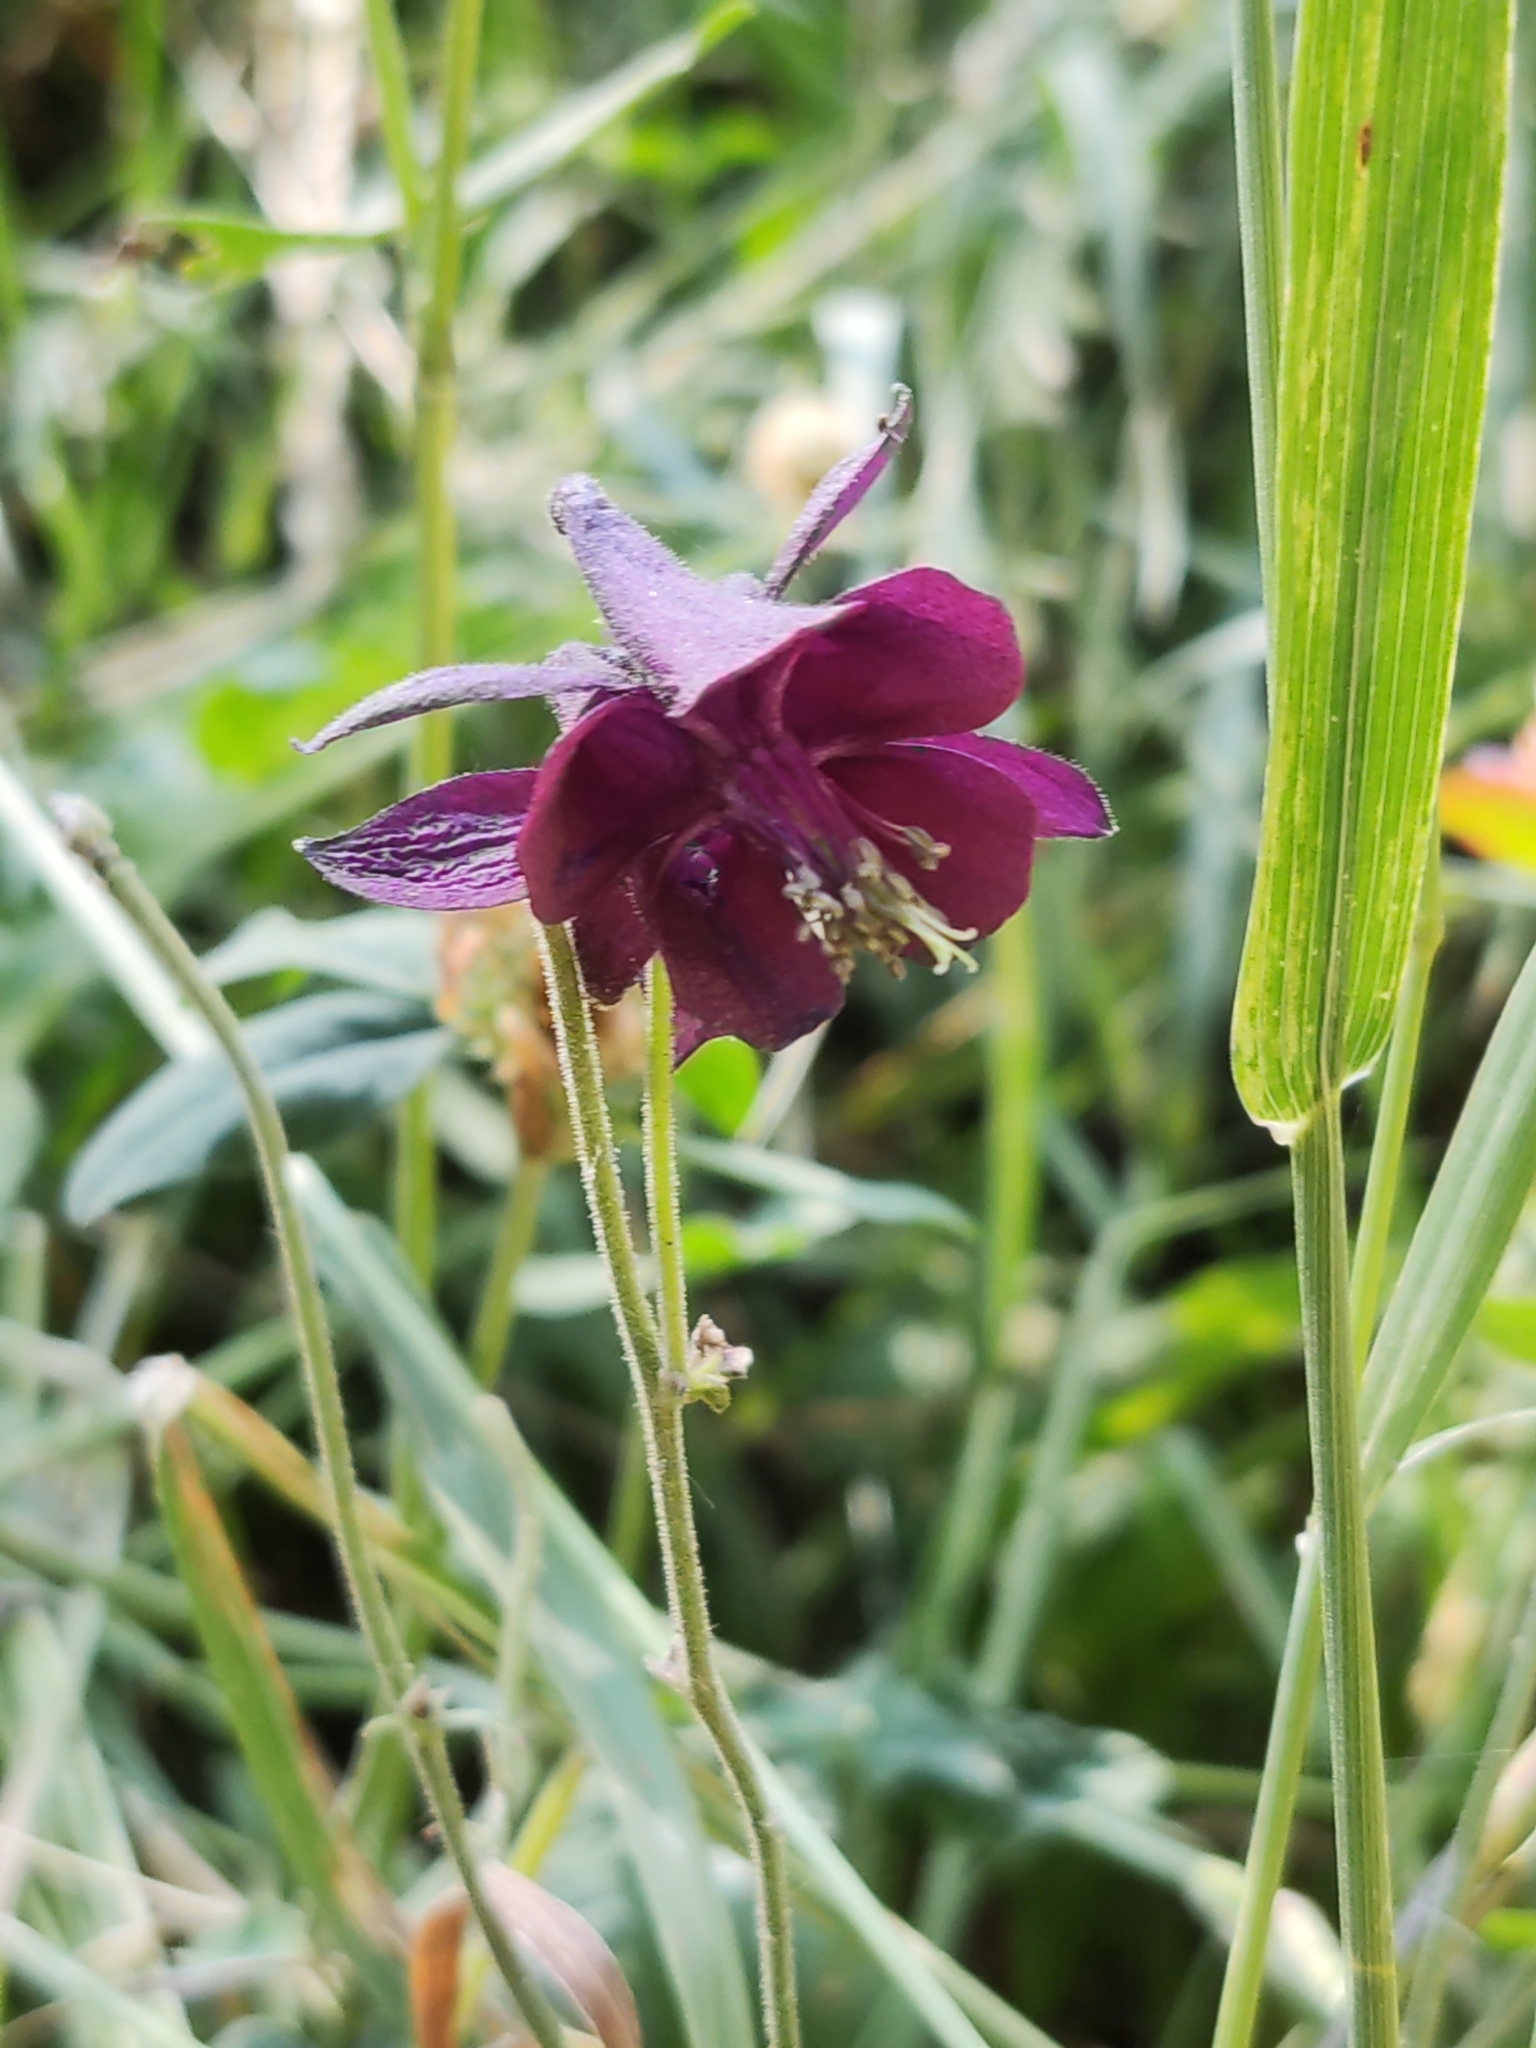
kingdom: Plantae
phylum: Tracheophyta
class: Magnoliopsida
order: Ranunculales
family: Ranunculaceae
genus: Aquilegia
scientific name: Aquilegia atrata
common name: Dark columbine
